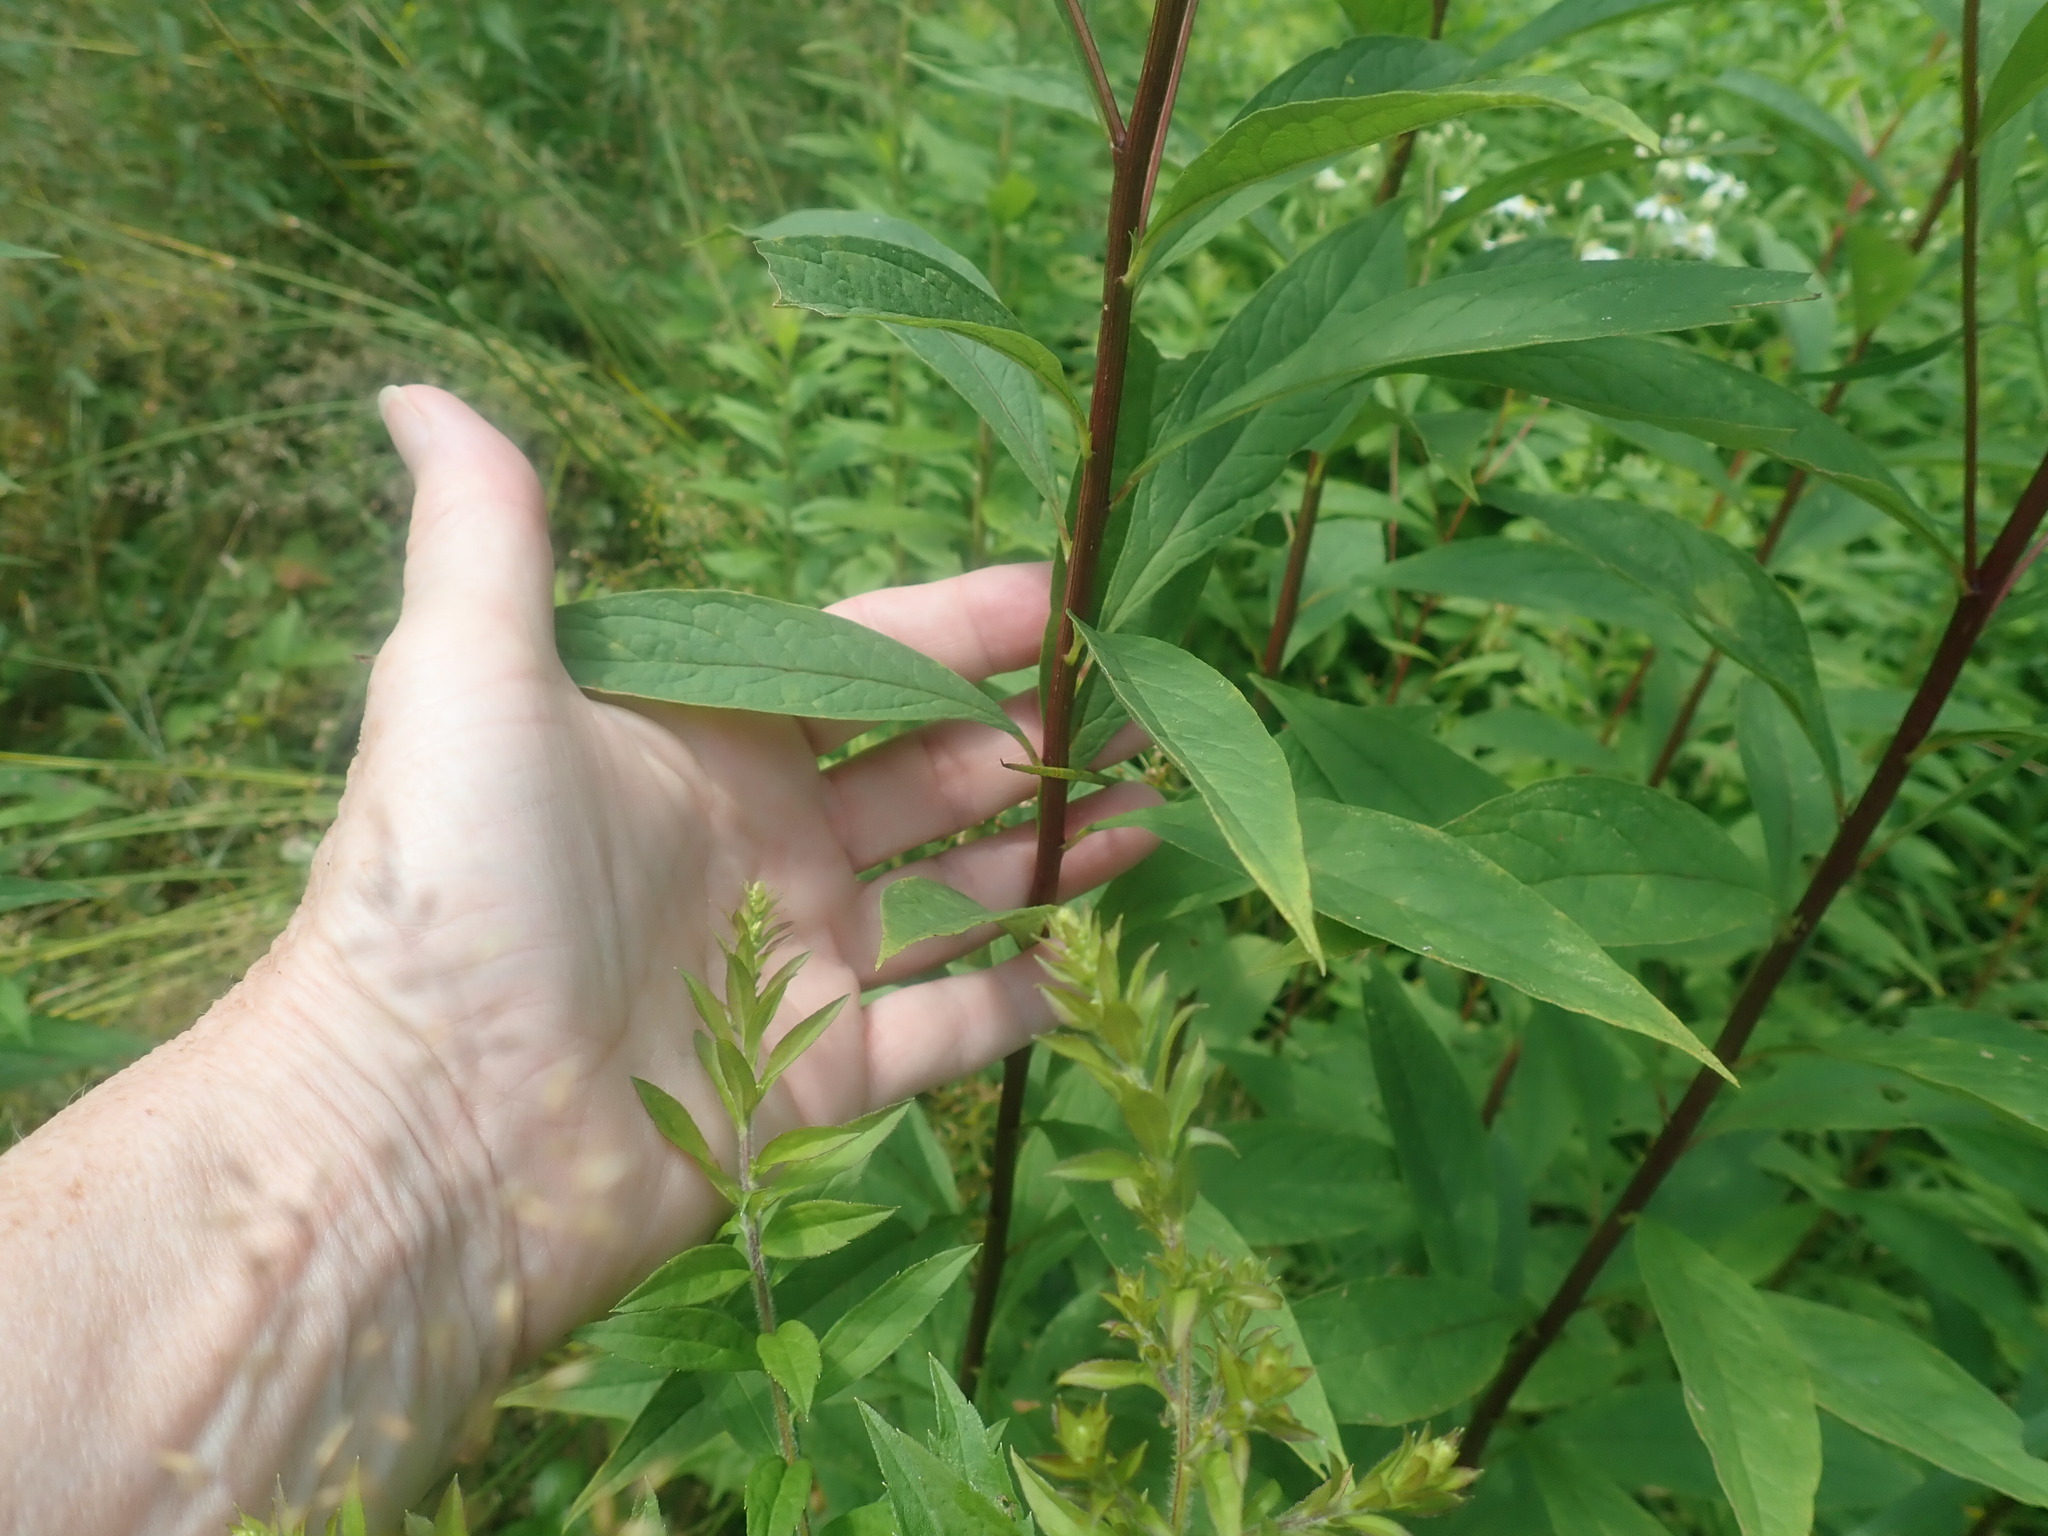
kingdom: Plantae
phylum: Tracheophyta
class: Magnoliopsida
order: Asterales
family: Asteraceae
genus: Doellingeria
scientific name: Doellingeria umbellata
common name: Flat-top white aster
